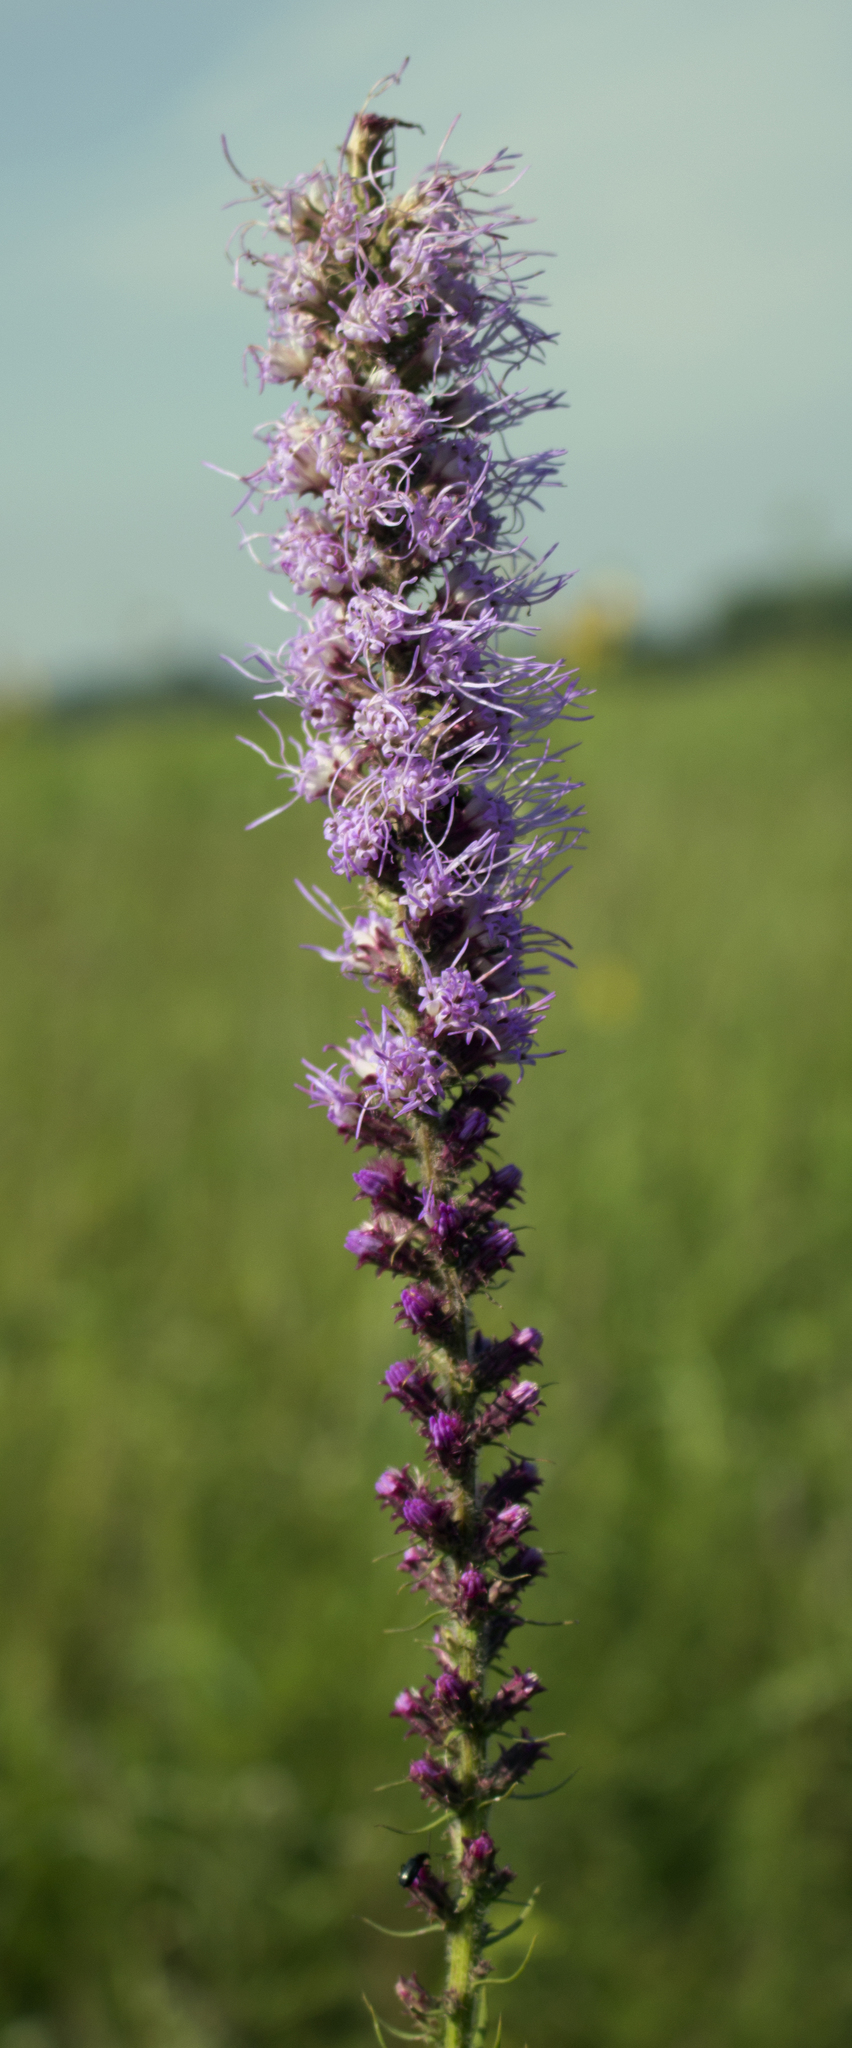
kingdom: Plantae
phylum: Tracheophyta
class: Magnoliopsida
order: Asterales
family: Asteraceae
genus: Liatris
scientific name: Liatris pycnostachya
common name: Cattail gayfeather
